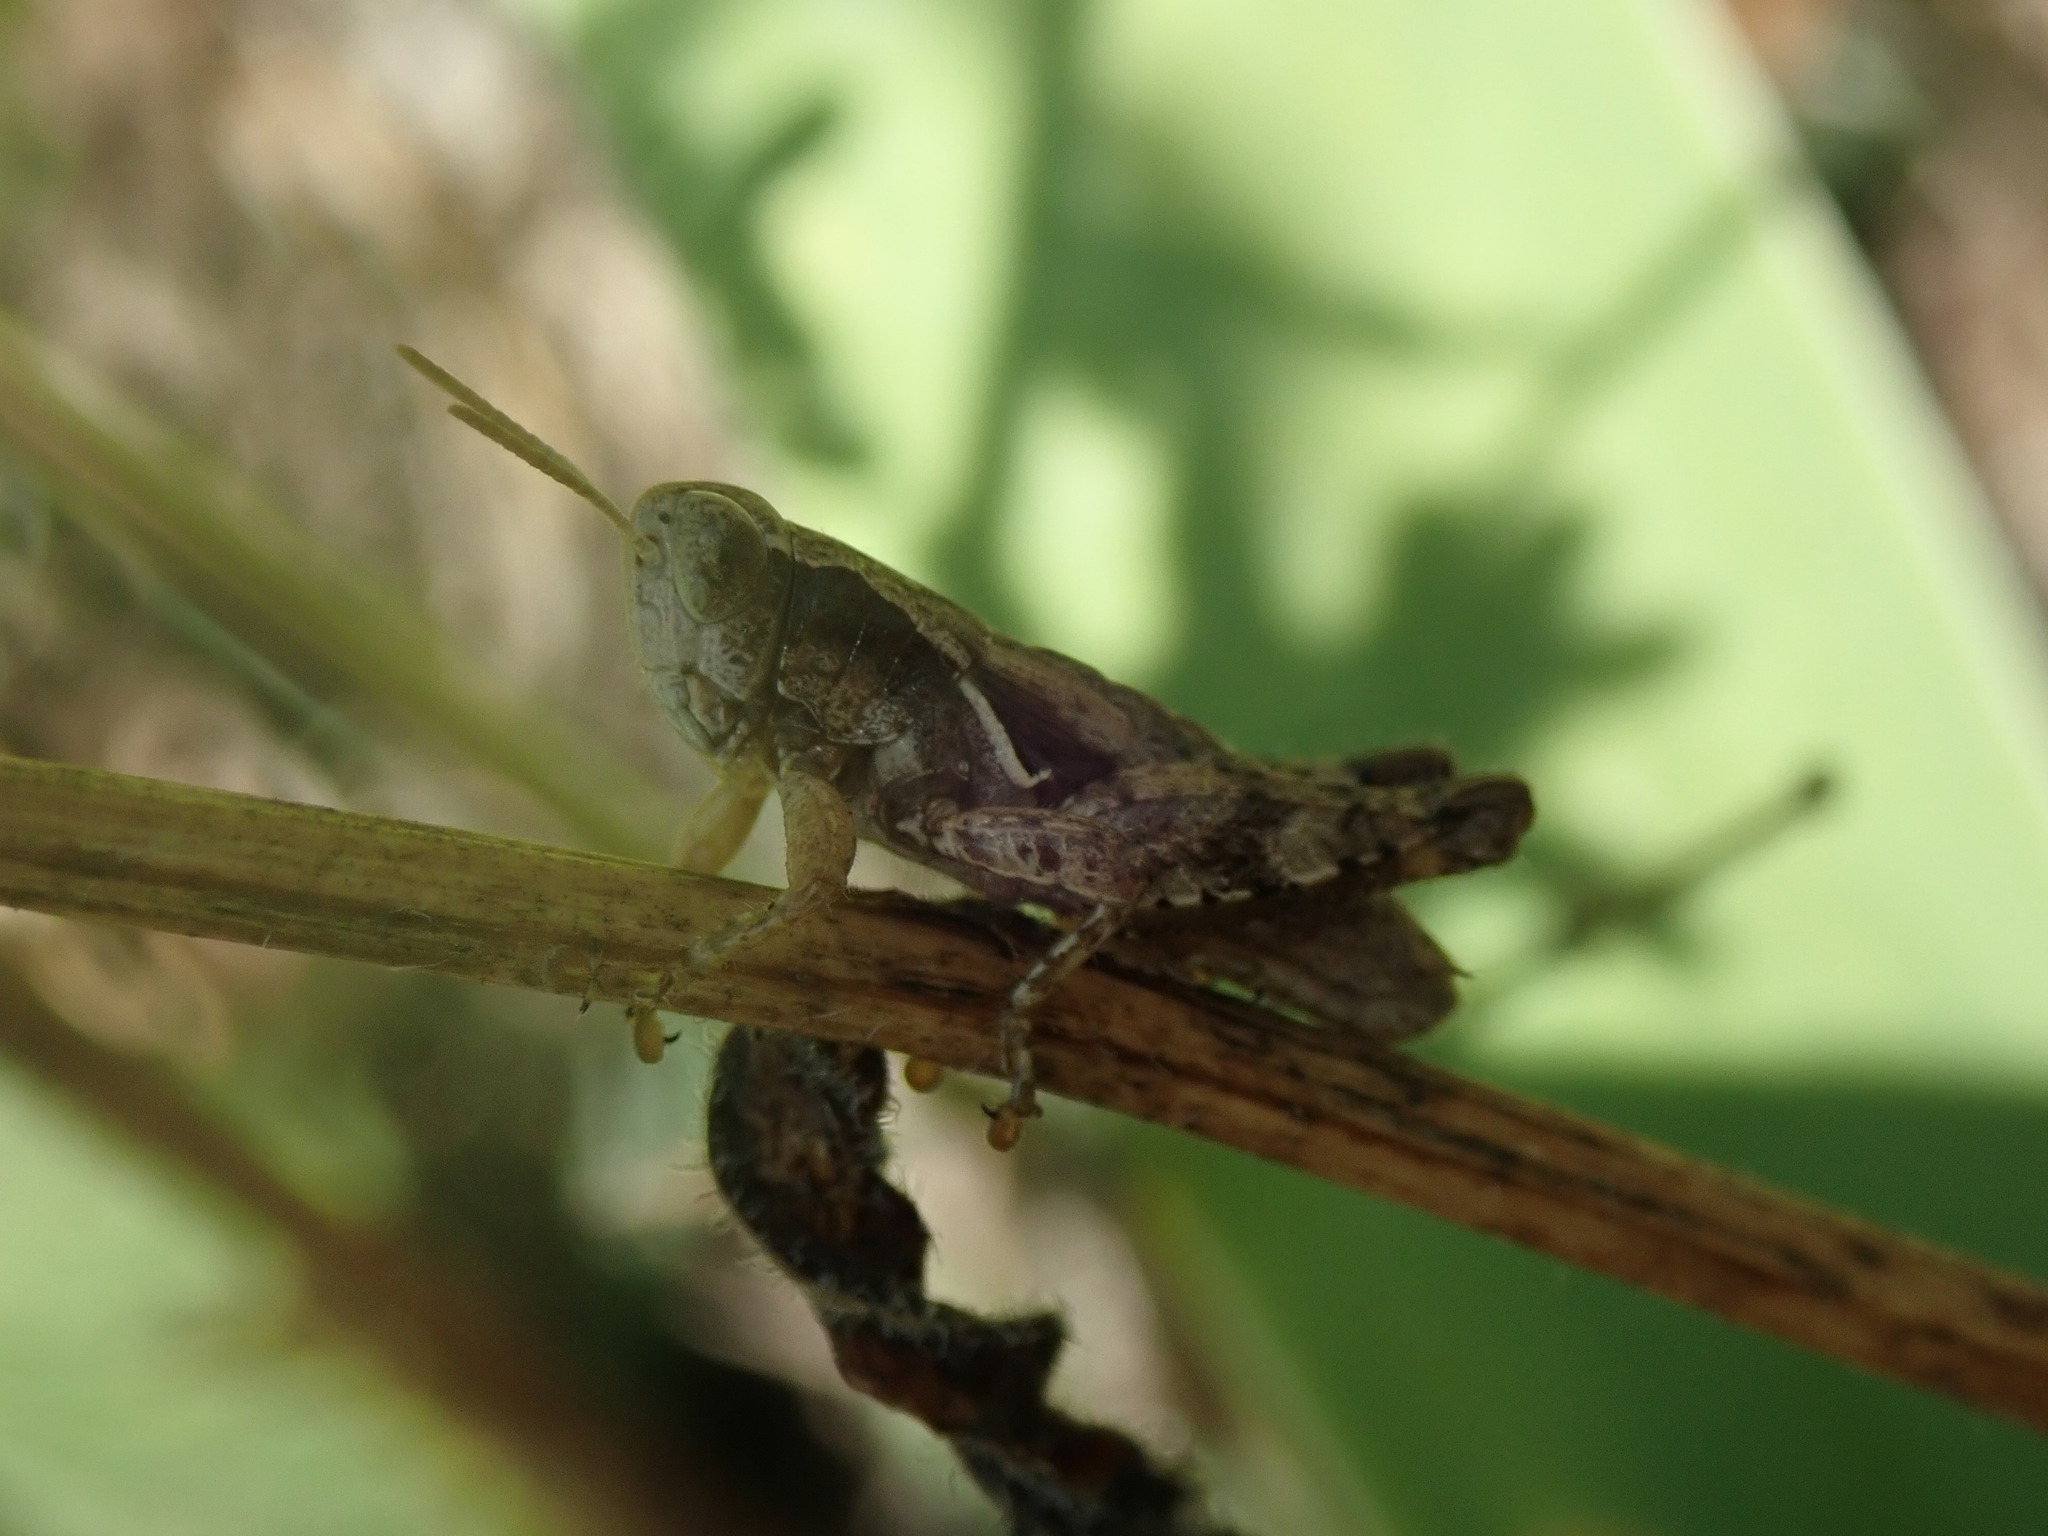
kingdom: Animalia
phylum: Arthropoda
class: Insecta
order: Orthoptera
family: Acrididae
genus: Pezotettix
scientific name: Pezotettix giornae
